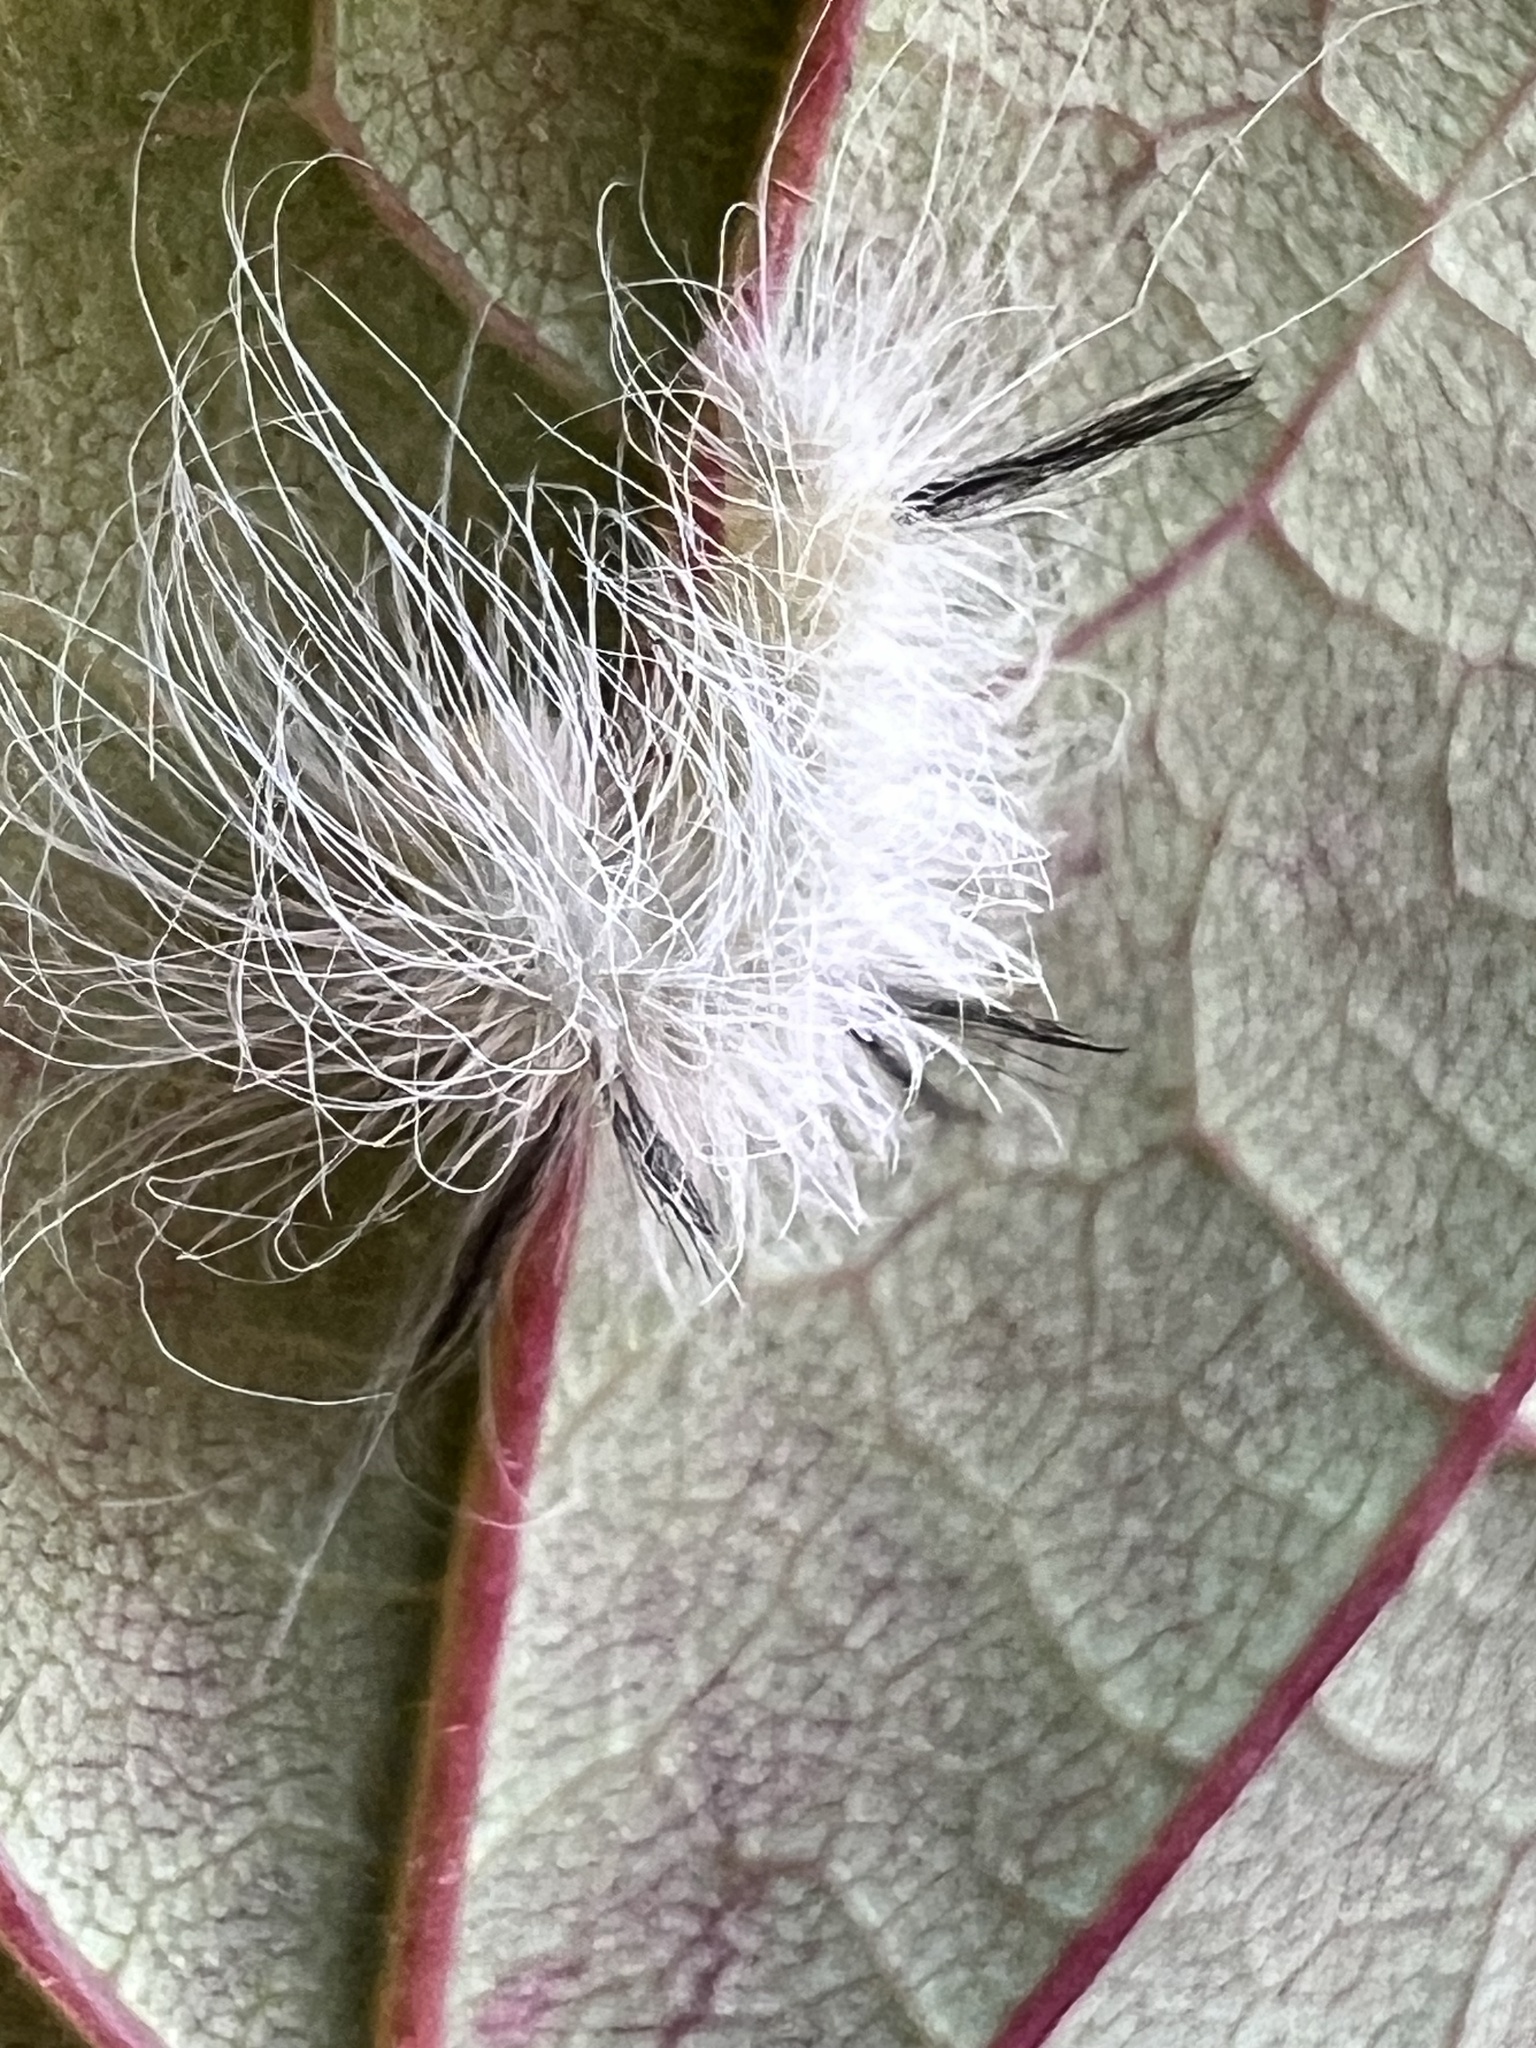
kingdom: Animalia
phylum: Arthropoda
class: Insecta
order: Lepidoptera
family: Noctuidae
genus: Acronicta
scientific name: Acronicta americana
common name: American dagger
